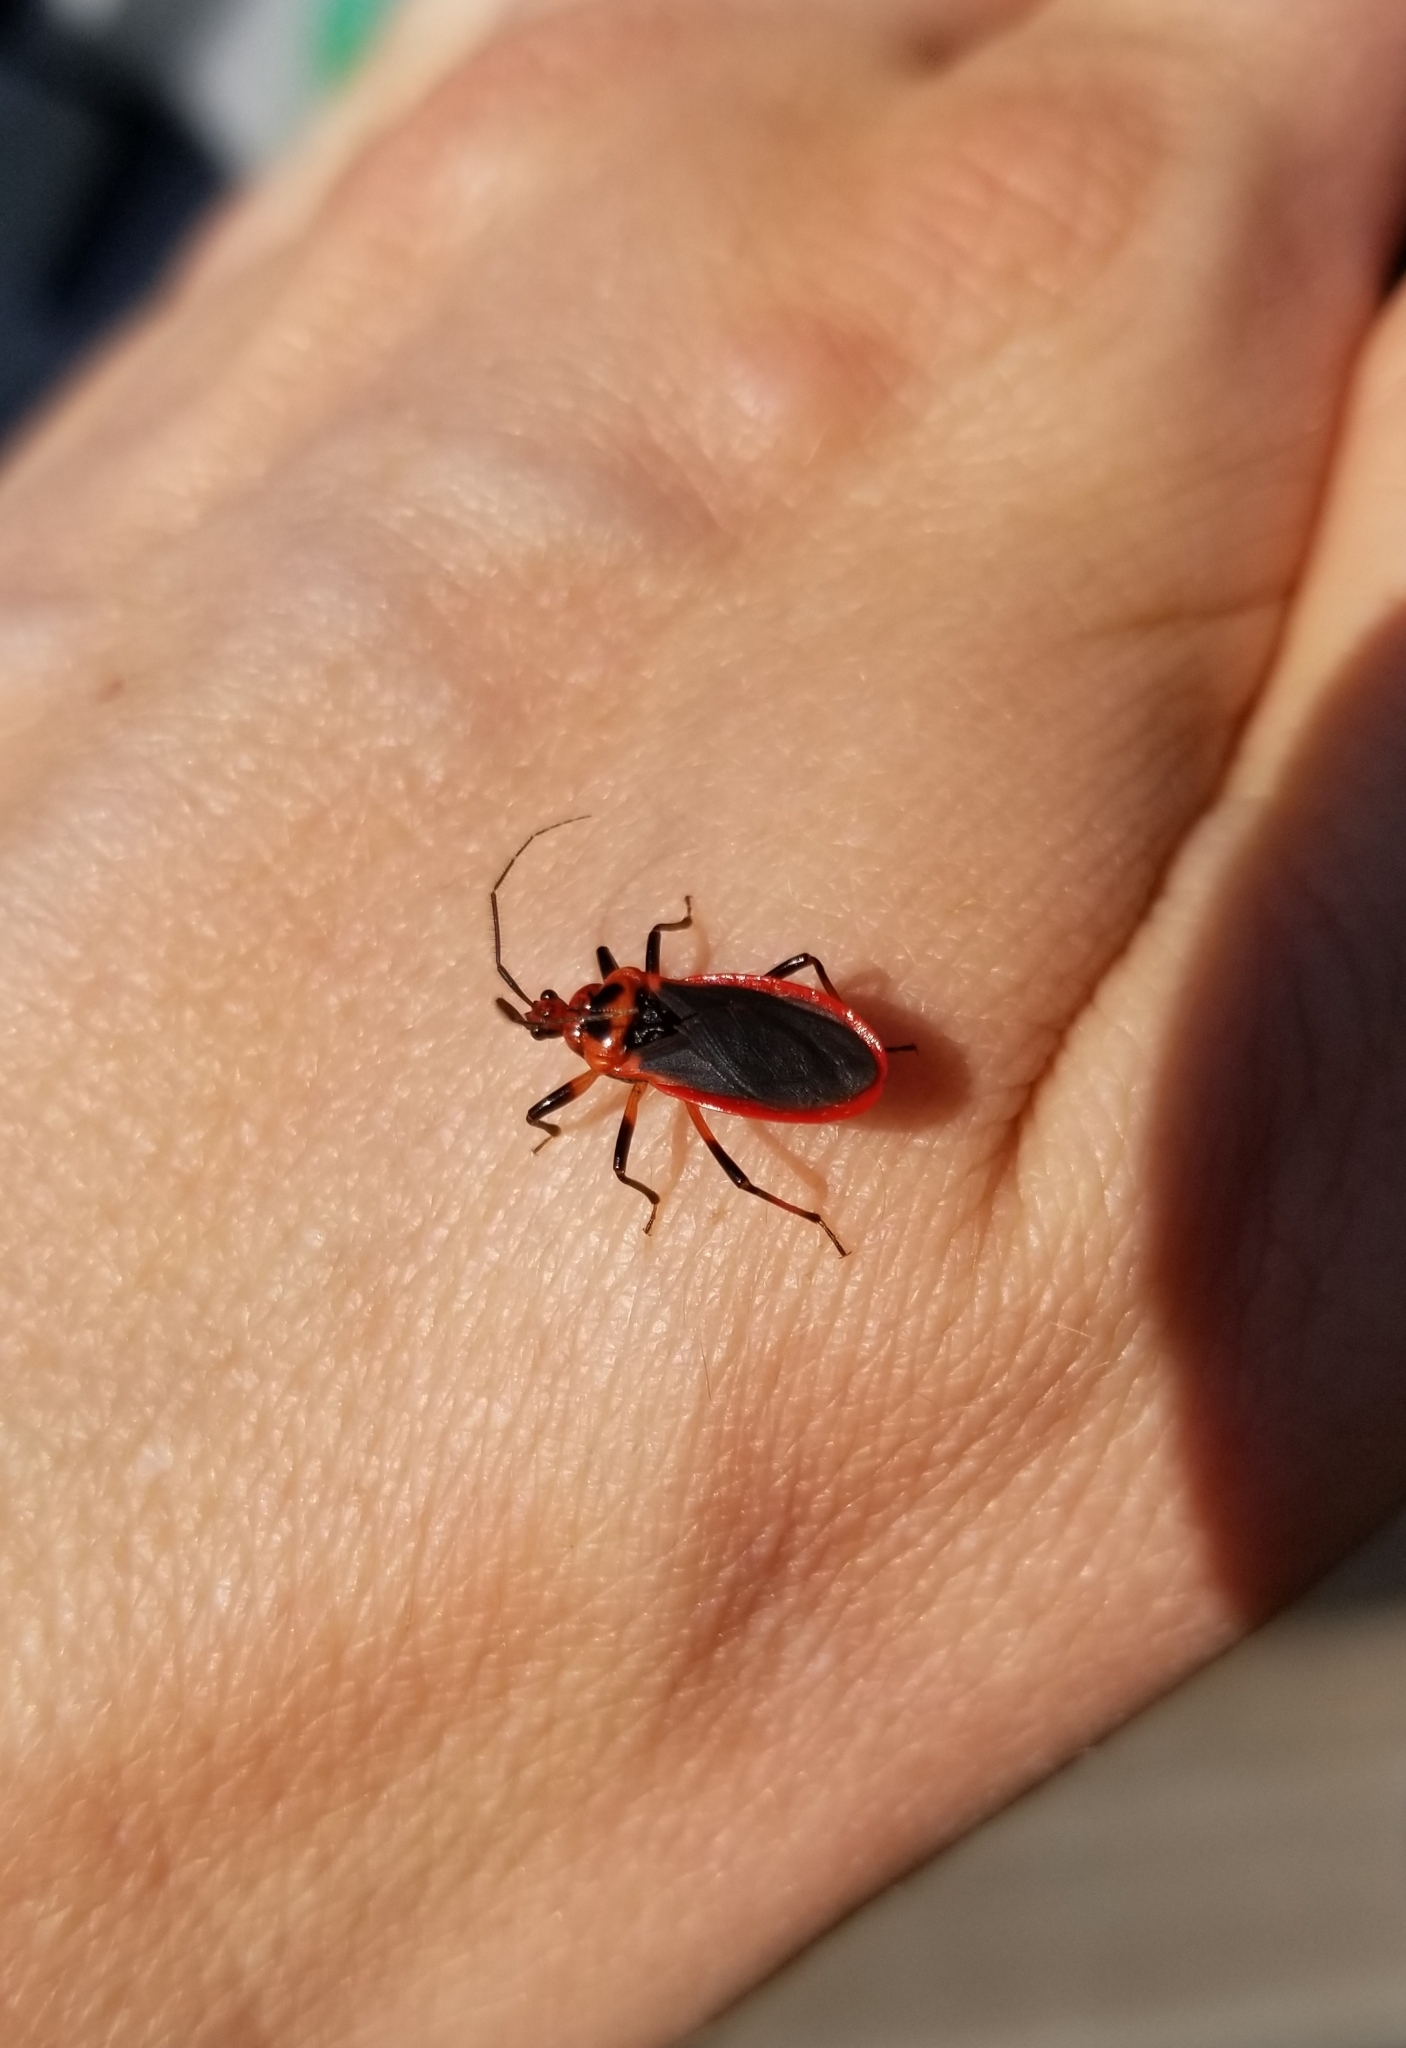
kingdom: Animalia
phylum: Arthropoda
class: Insecta
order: Hemiptera
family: Reduviidae
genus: Rhiginia
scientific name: Rhiginia cruciata
